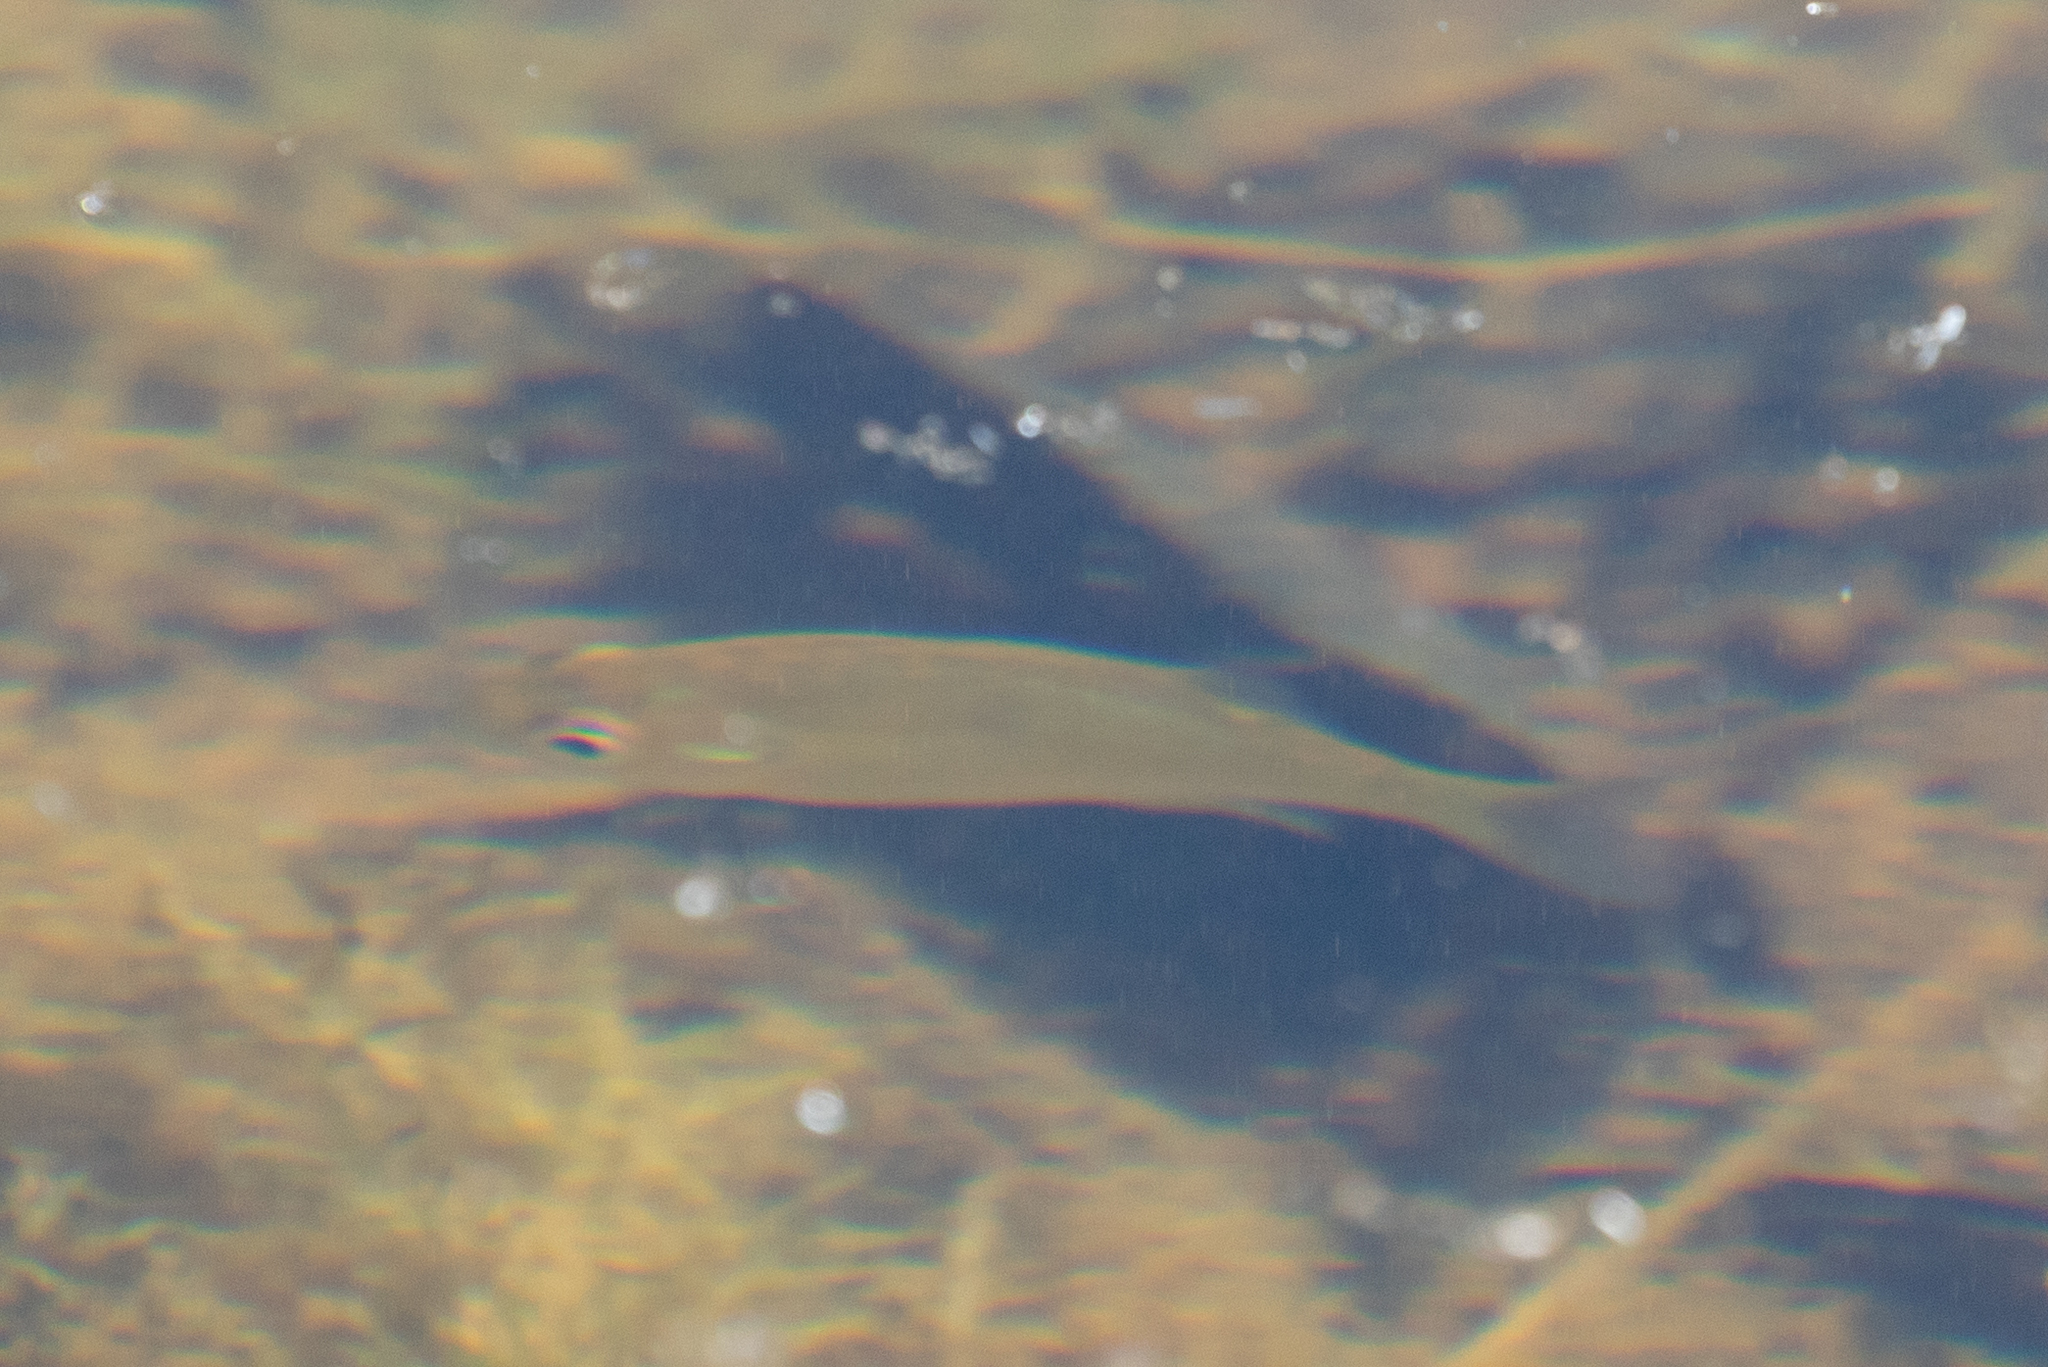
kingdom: Animalia
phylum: Chordata
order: Perciformes
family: Centrarchidae
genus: Lepomis
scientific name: Lepomis
